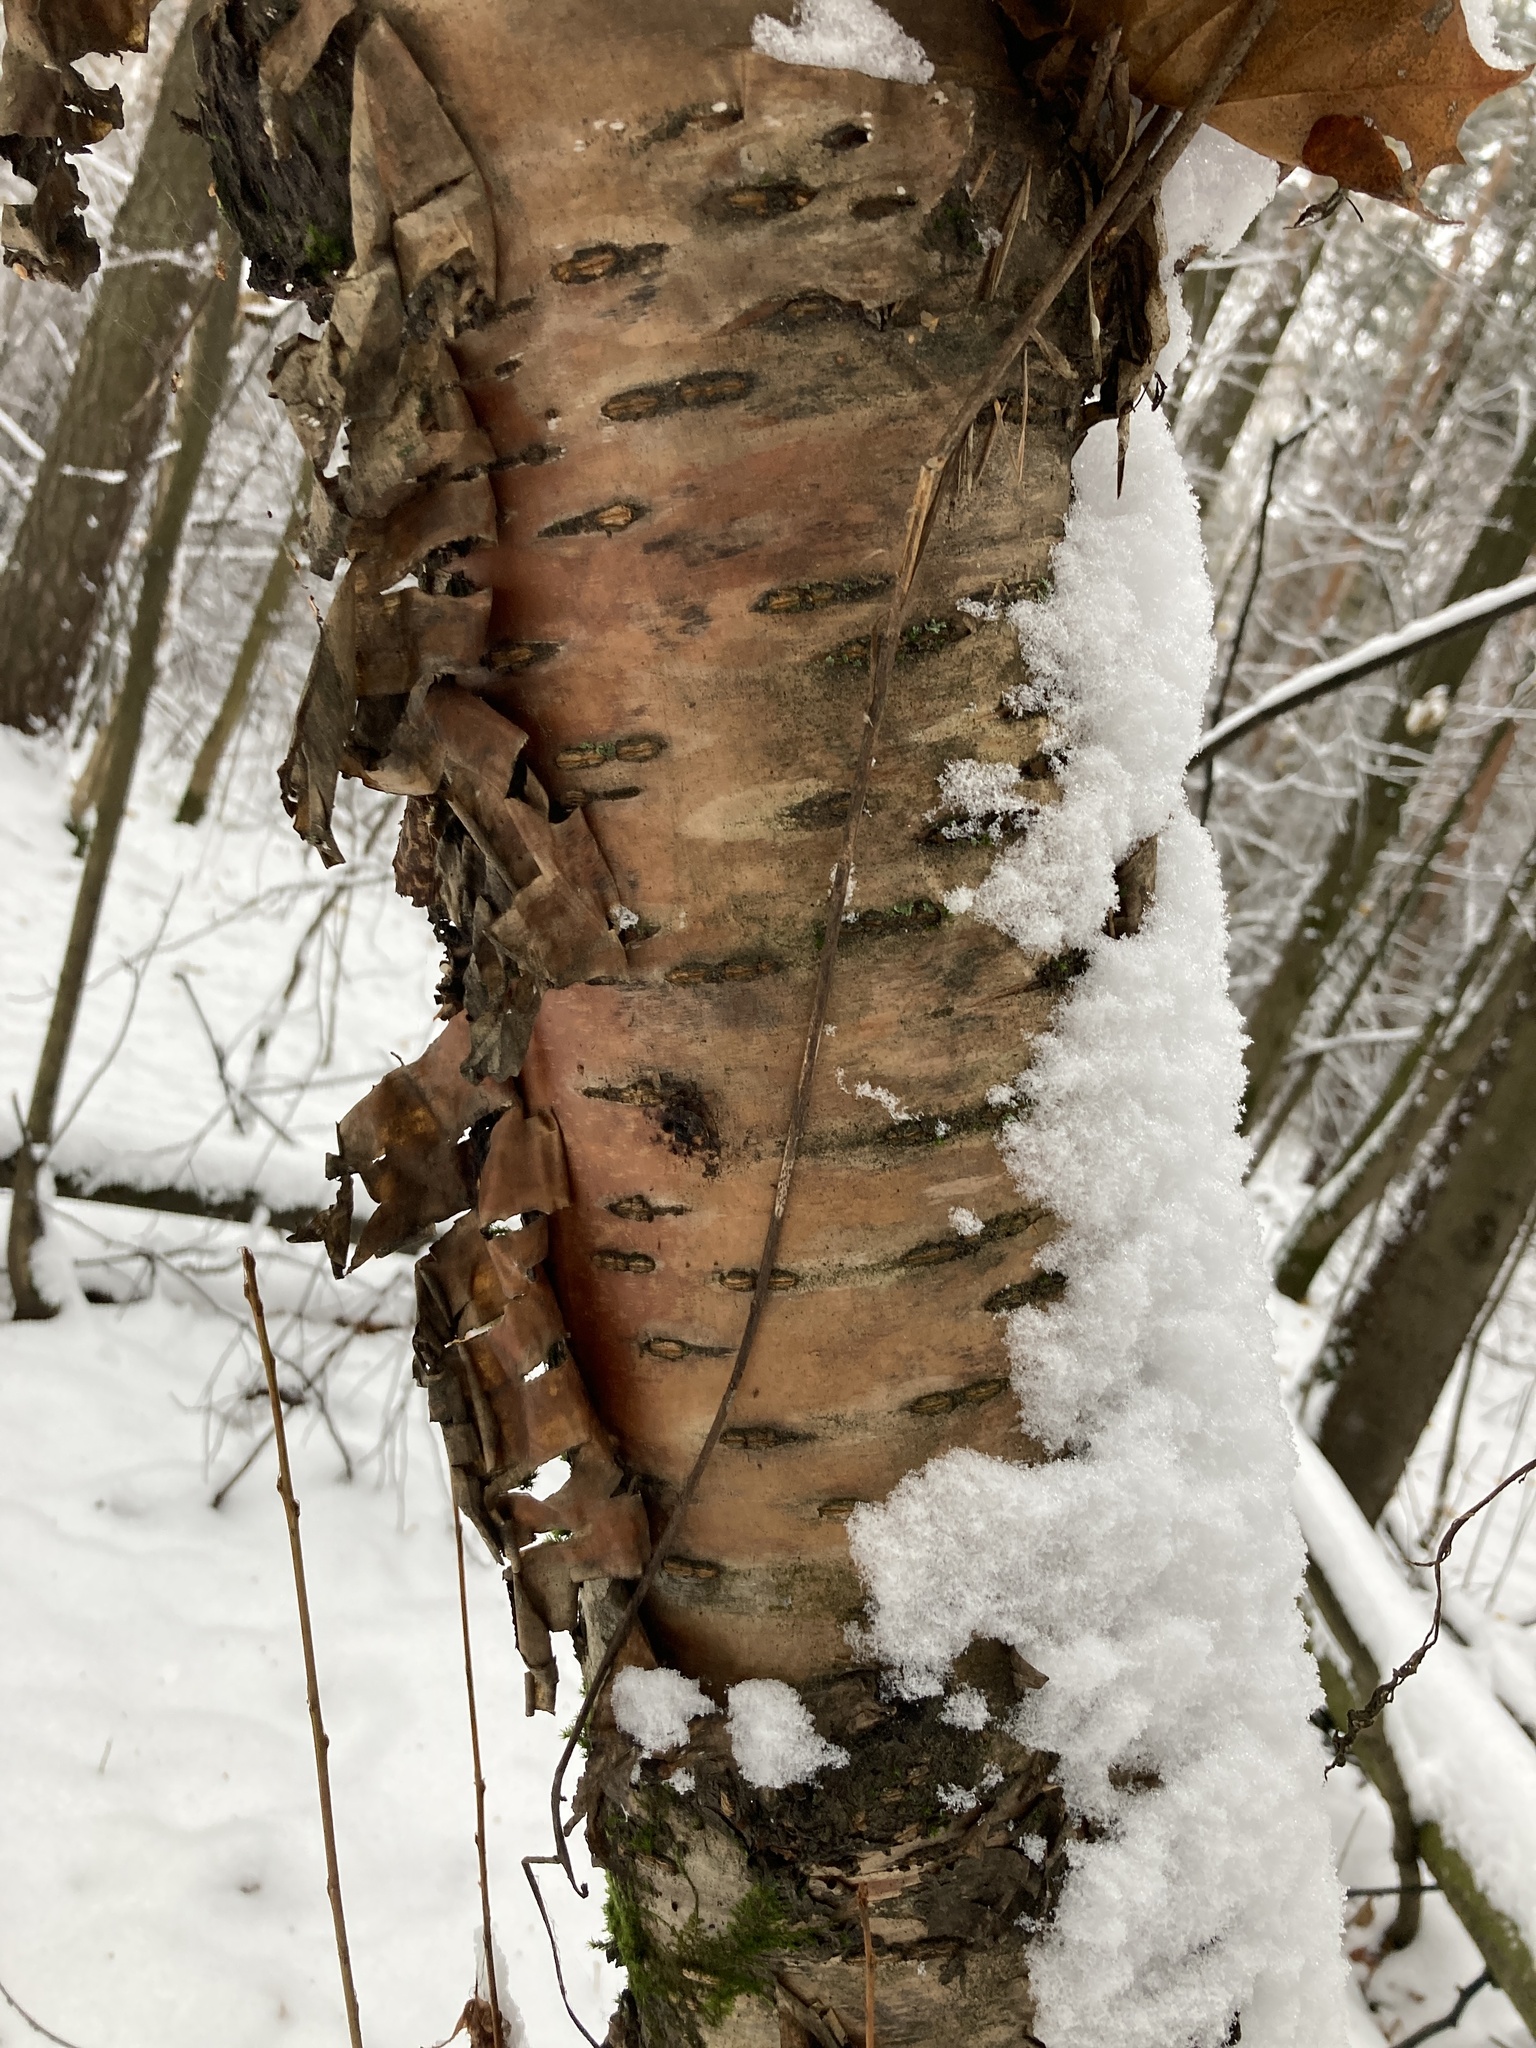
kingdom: Plantae
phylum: Tracheophyta
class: Magnoliopsida
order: Rosales
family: Rosaceae
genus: Prunus
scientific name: Prunus glandulifolia
